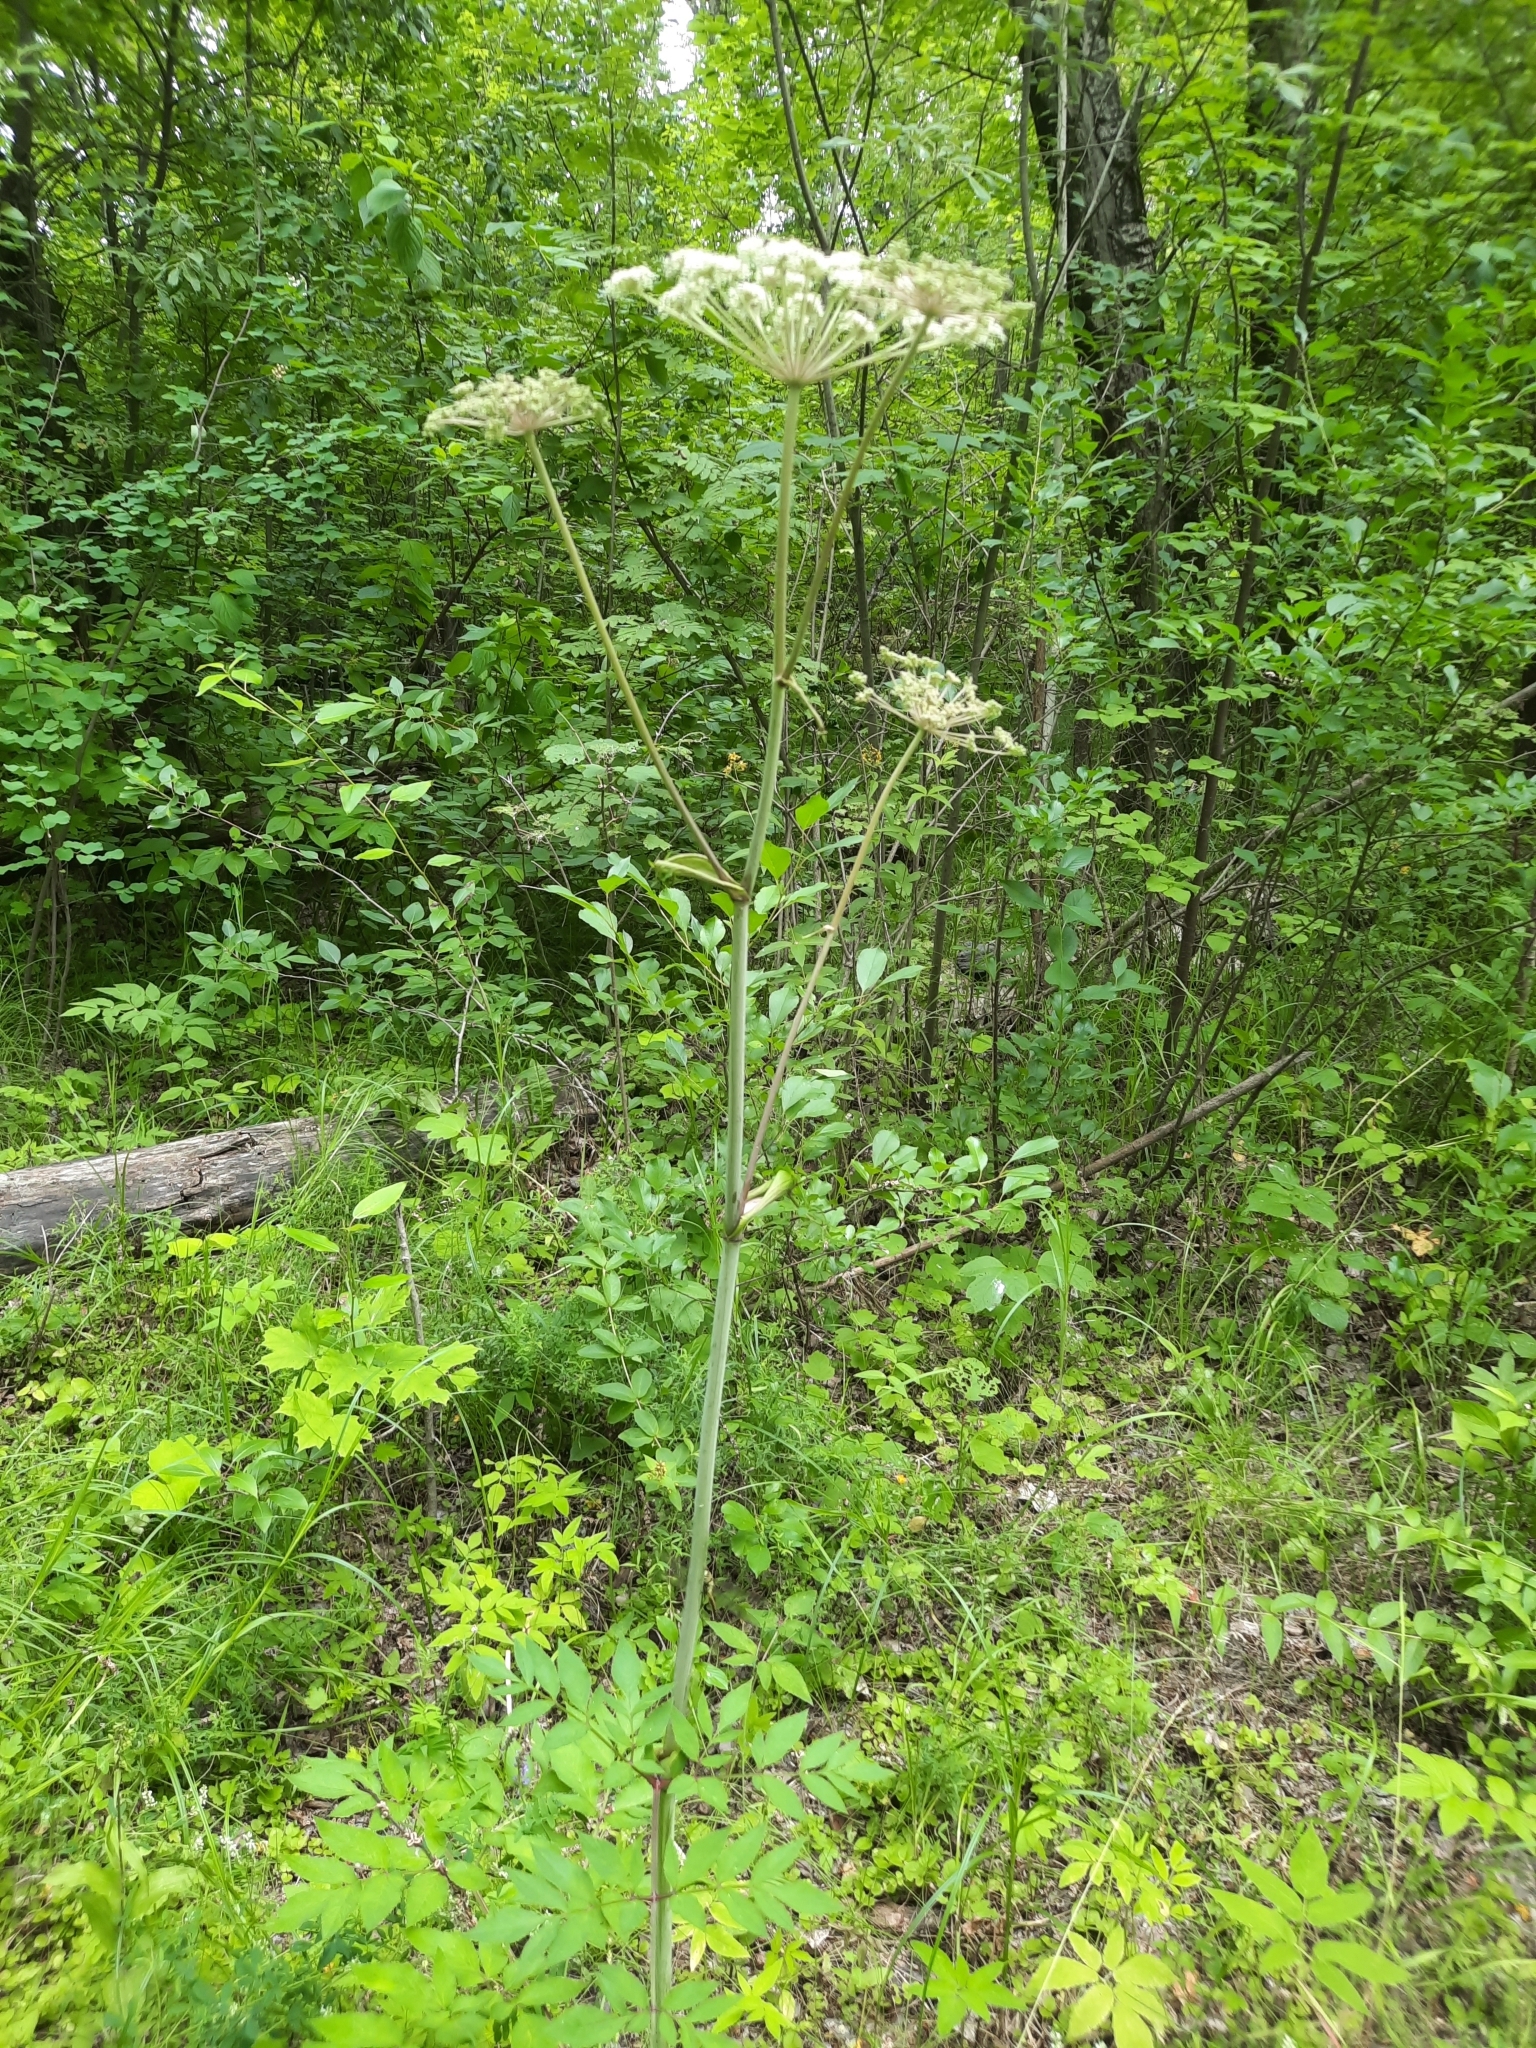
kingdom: Plantae
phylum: Tracheophyta
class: Magnoliopsida
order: Apiales
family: Apiaceae
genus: Angelica
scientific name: Angelica sylvestris
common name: Wild angelica
